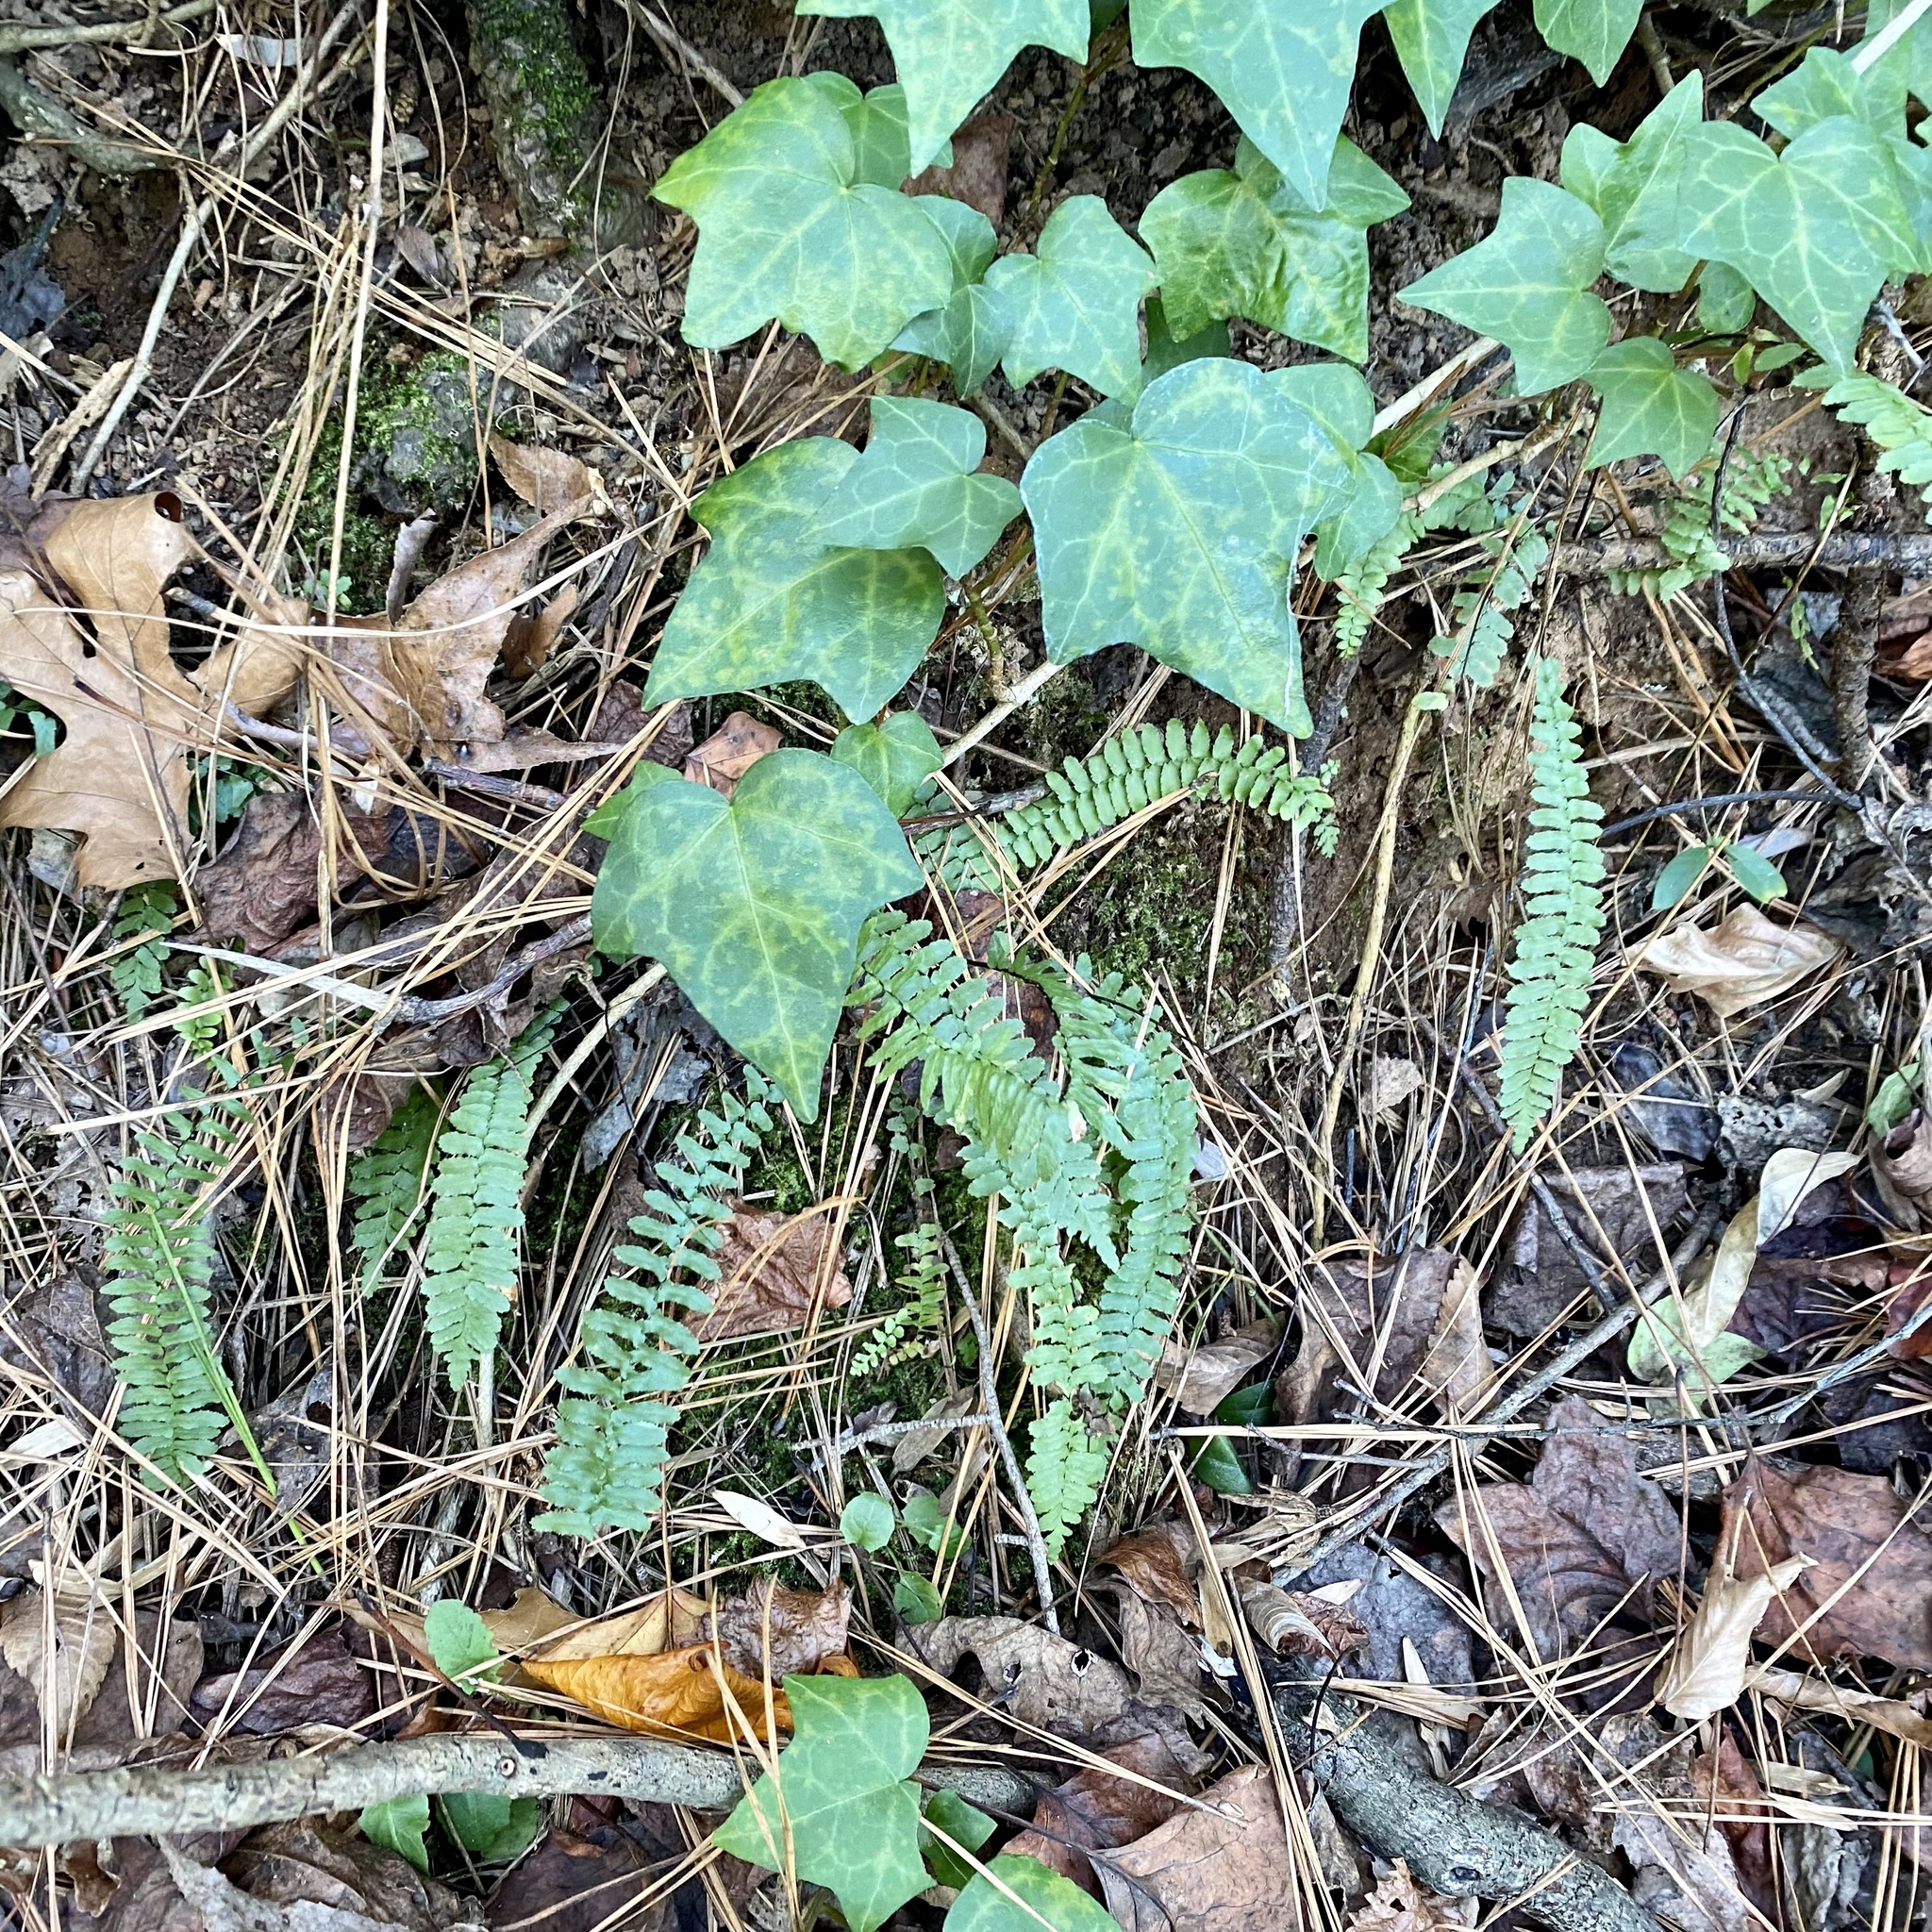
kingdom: Plantae
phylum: Tracheophyta
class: Polypodiopsida
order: Polypodiales
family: Aspleniaceae
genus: Asplenium
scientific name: Asplenium platyneuron
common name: Ebony spleenwort
